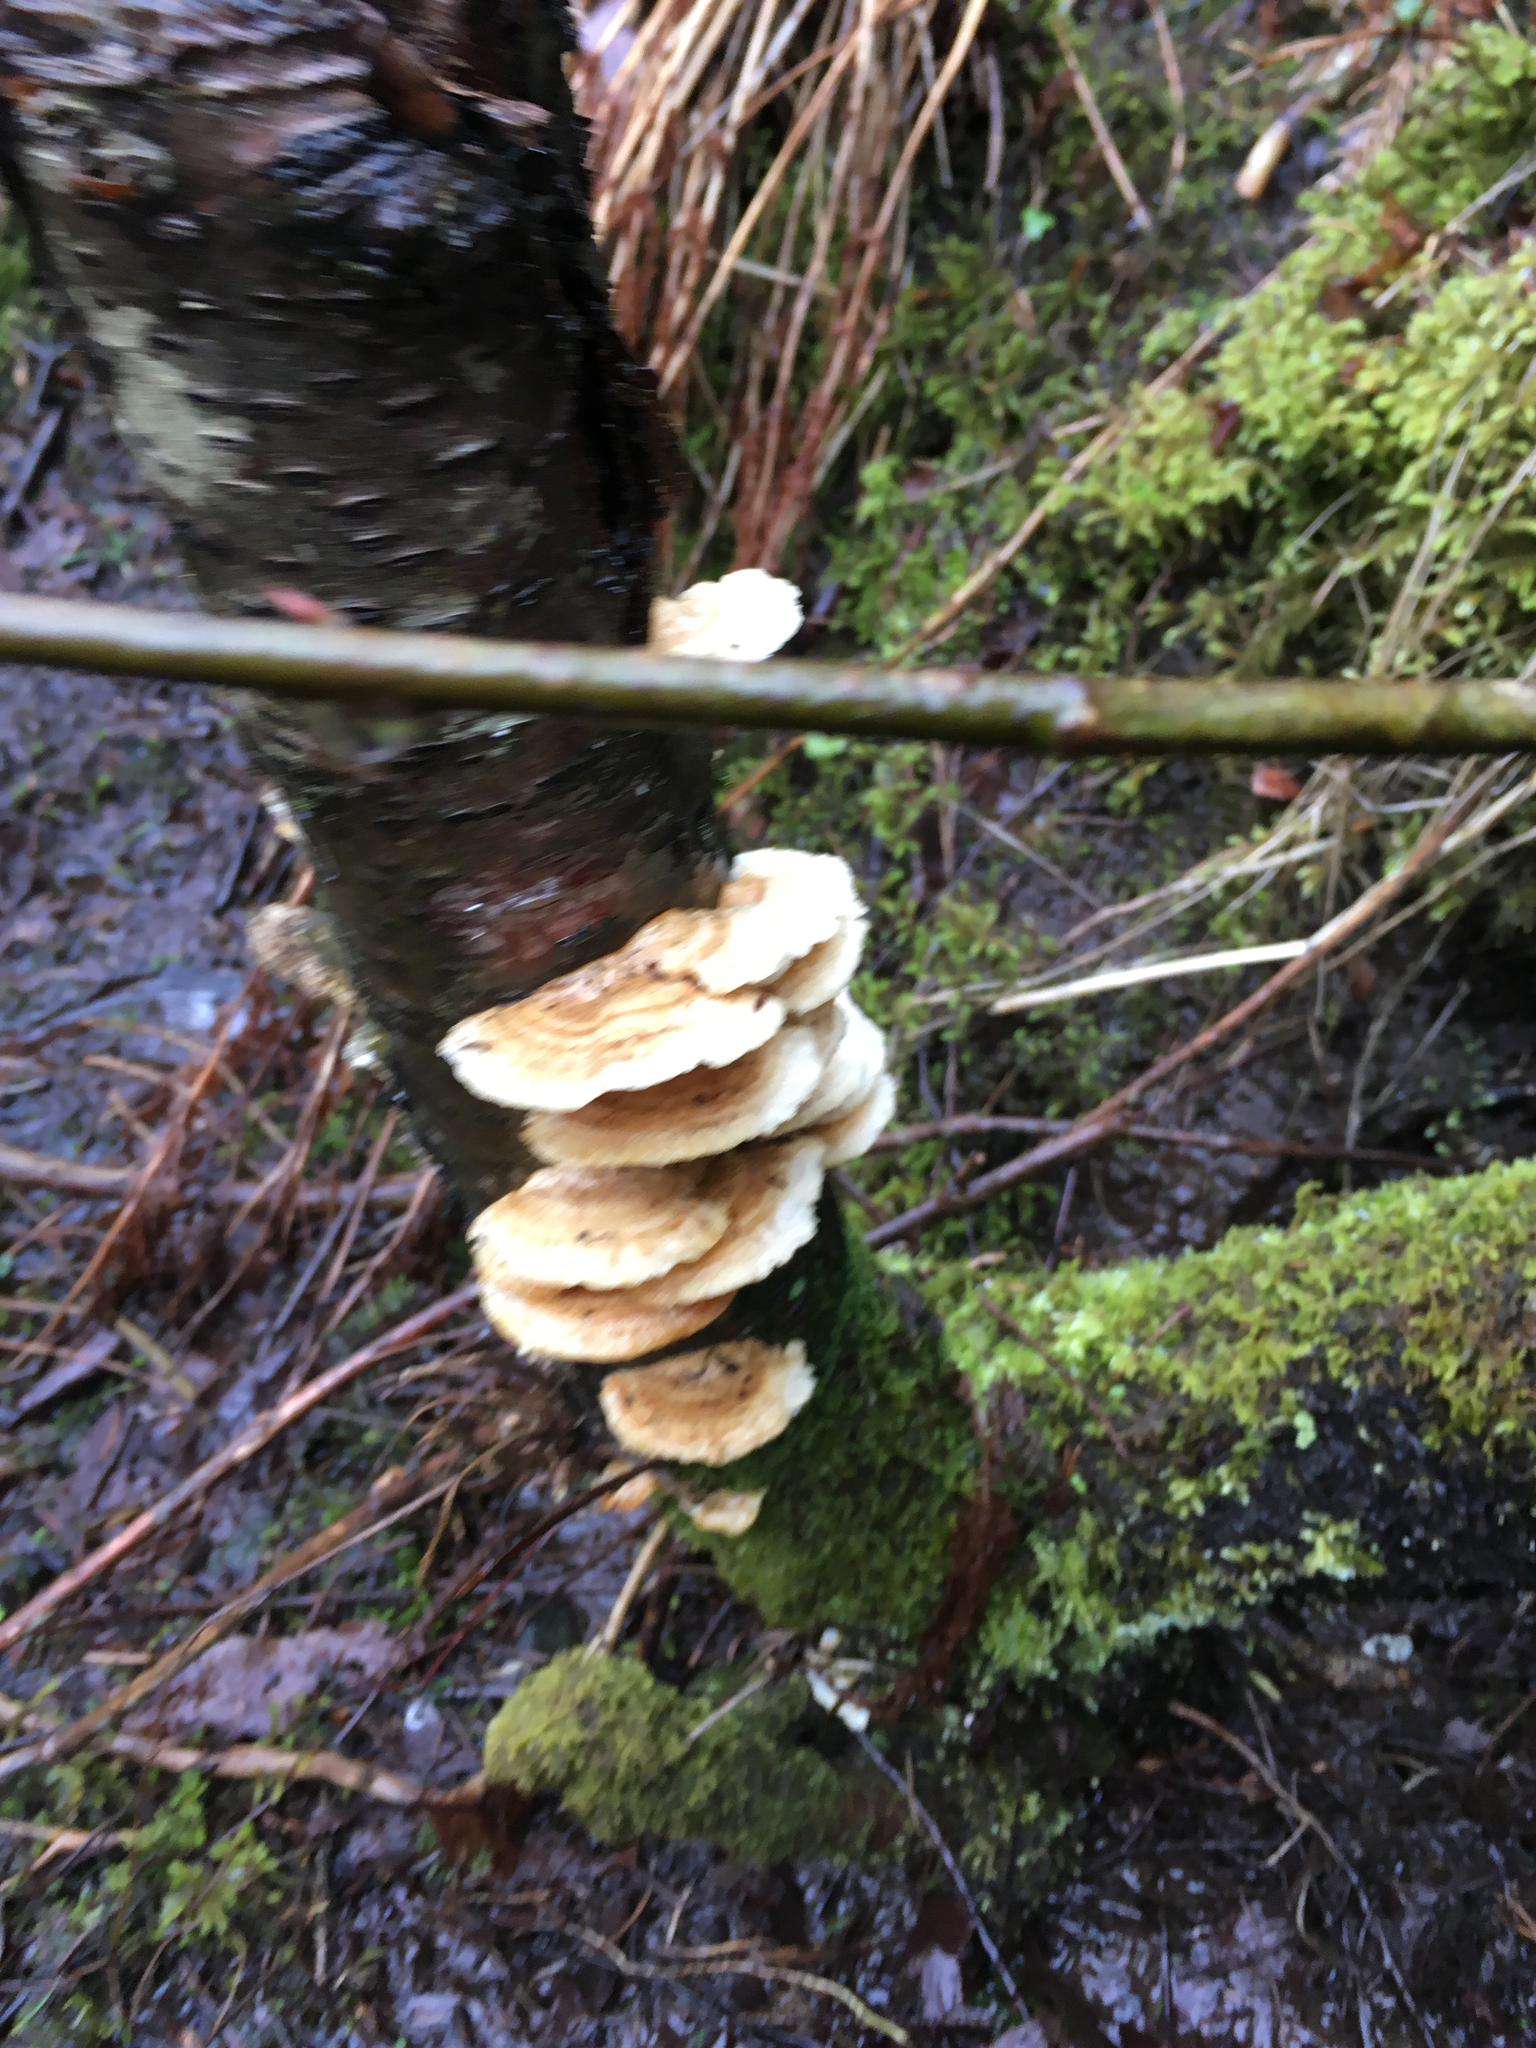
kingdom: Fungi
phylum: Basidiomycota
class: Agaricomycetes
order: Polyporales
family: Polyporaceae
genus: Trametes
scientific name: Trametes ochracea
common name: Ochre bracket
